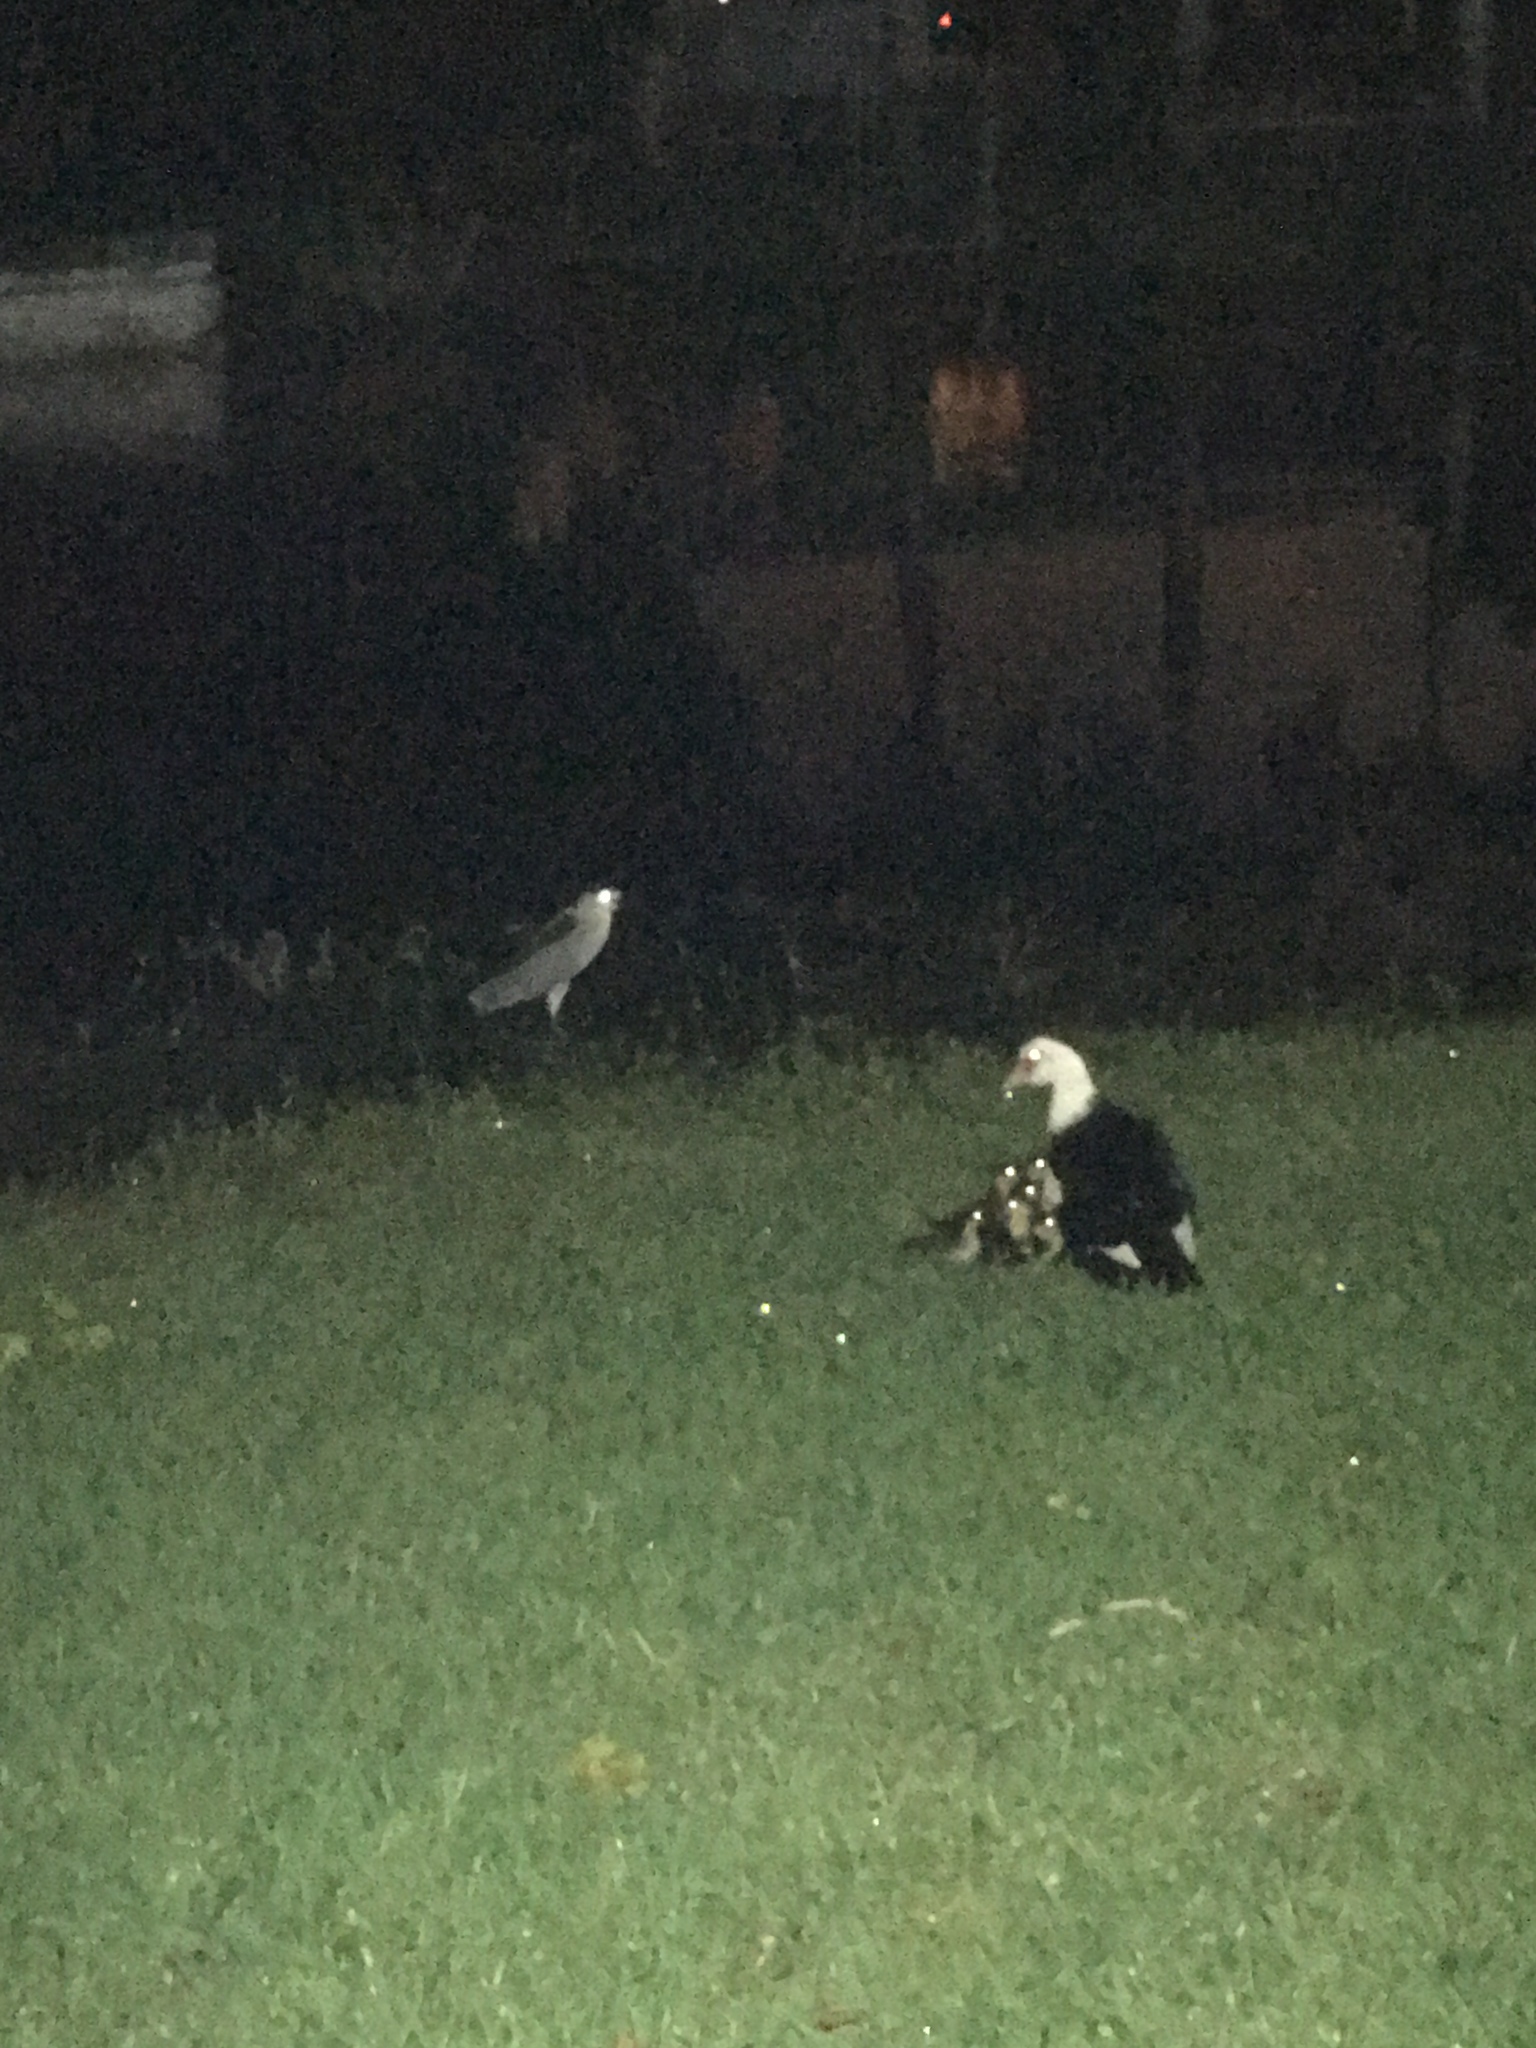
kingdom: Animalia
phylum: Chordata
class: Aves
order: Anseriformes
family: Anatidae
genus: Cairina
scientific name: Cairina moschata
